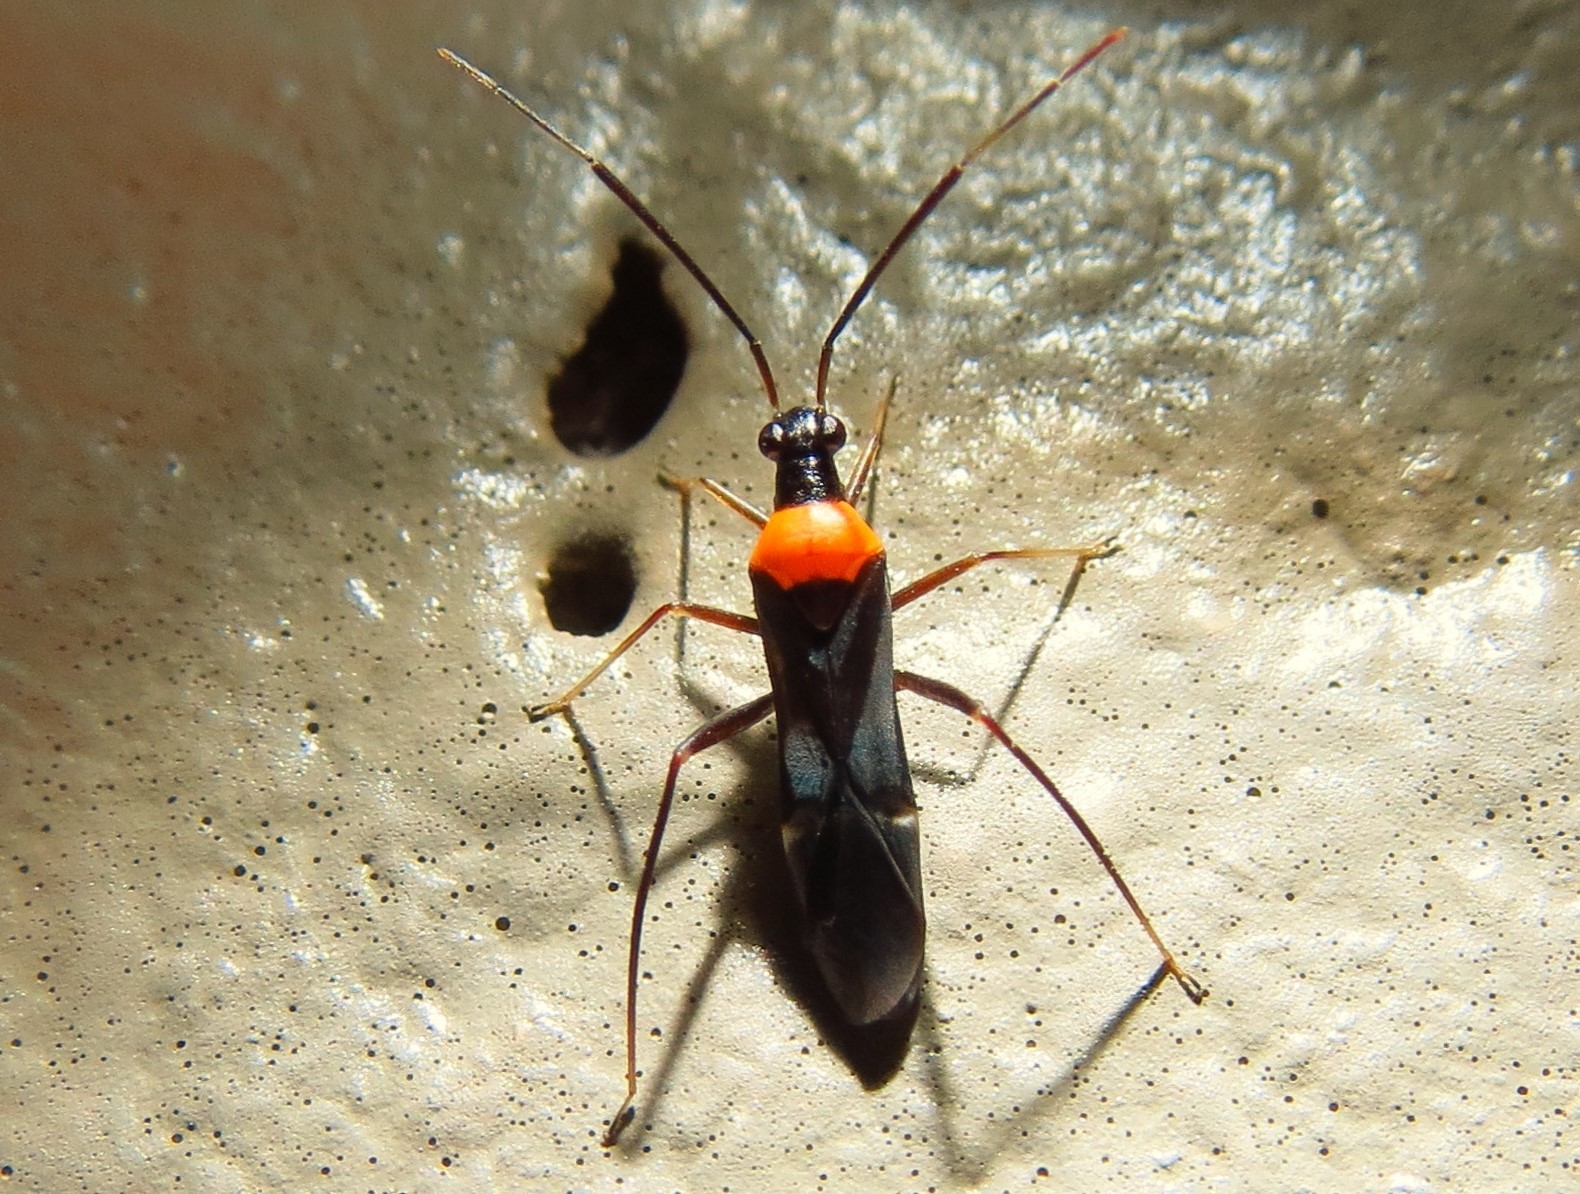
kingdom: Animalia
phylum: Arthropoda
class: Insecta
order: Hemiptera
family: Miridae
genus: Pseudoxenetus
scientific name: Pseudoxenetus regalis
